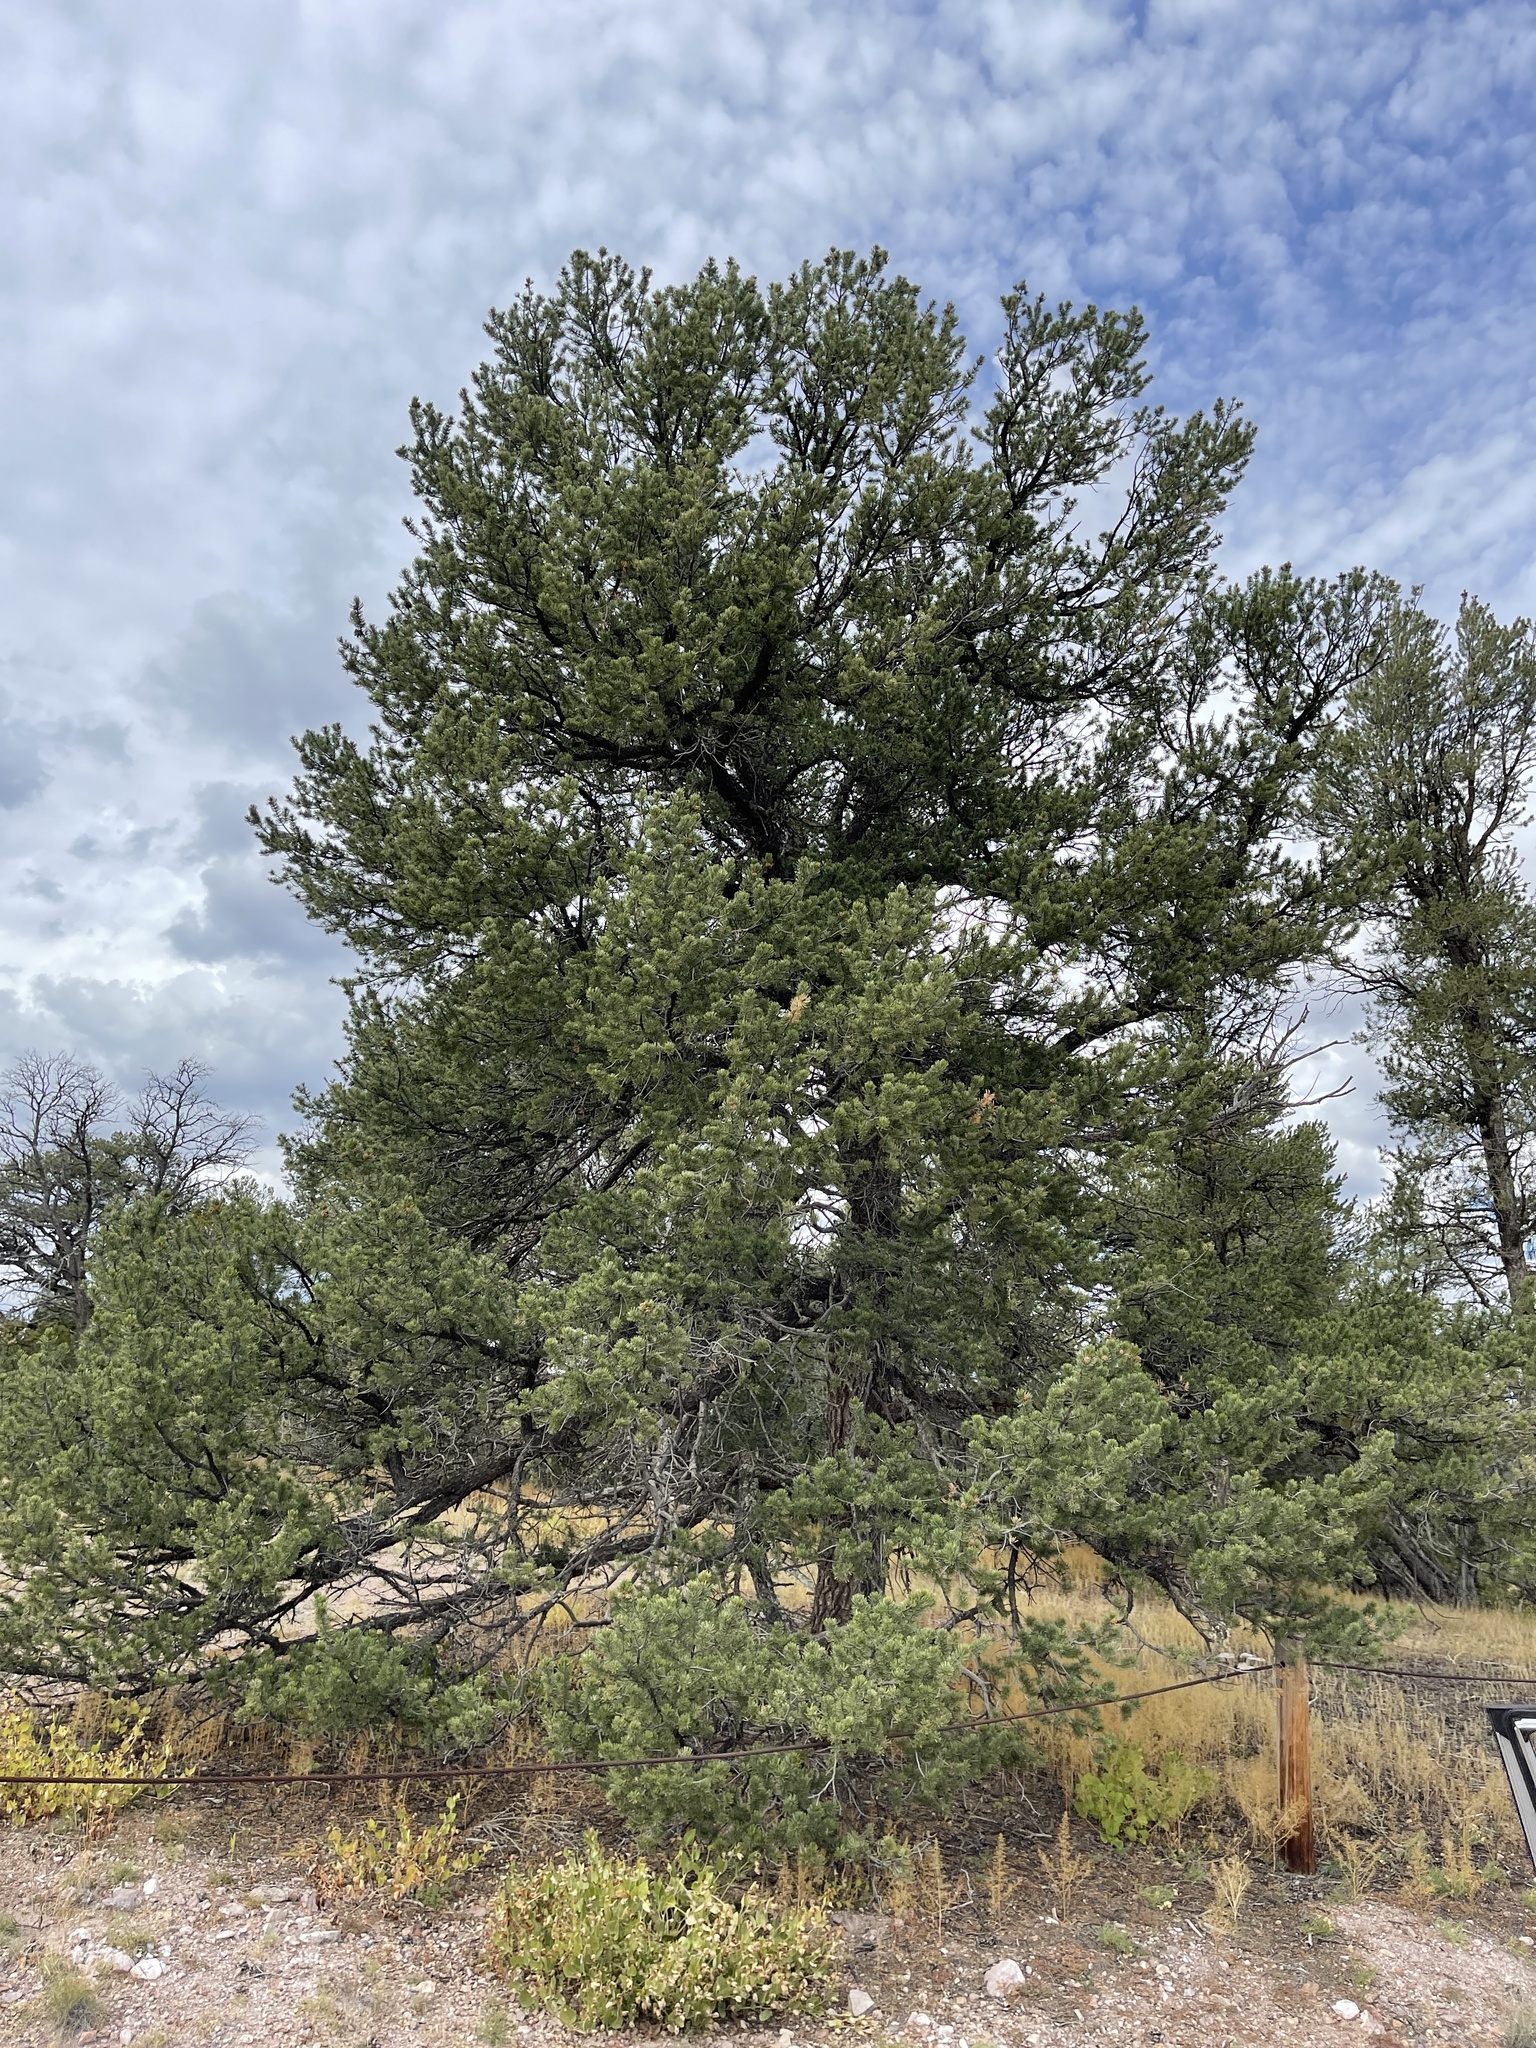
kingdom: Plantae
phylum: Tracheophyta
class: Pinopsida
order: Pinales
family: Pinaceae
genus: Pinus
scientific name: Pinus edulis
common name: Colorado pinyon
